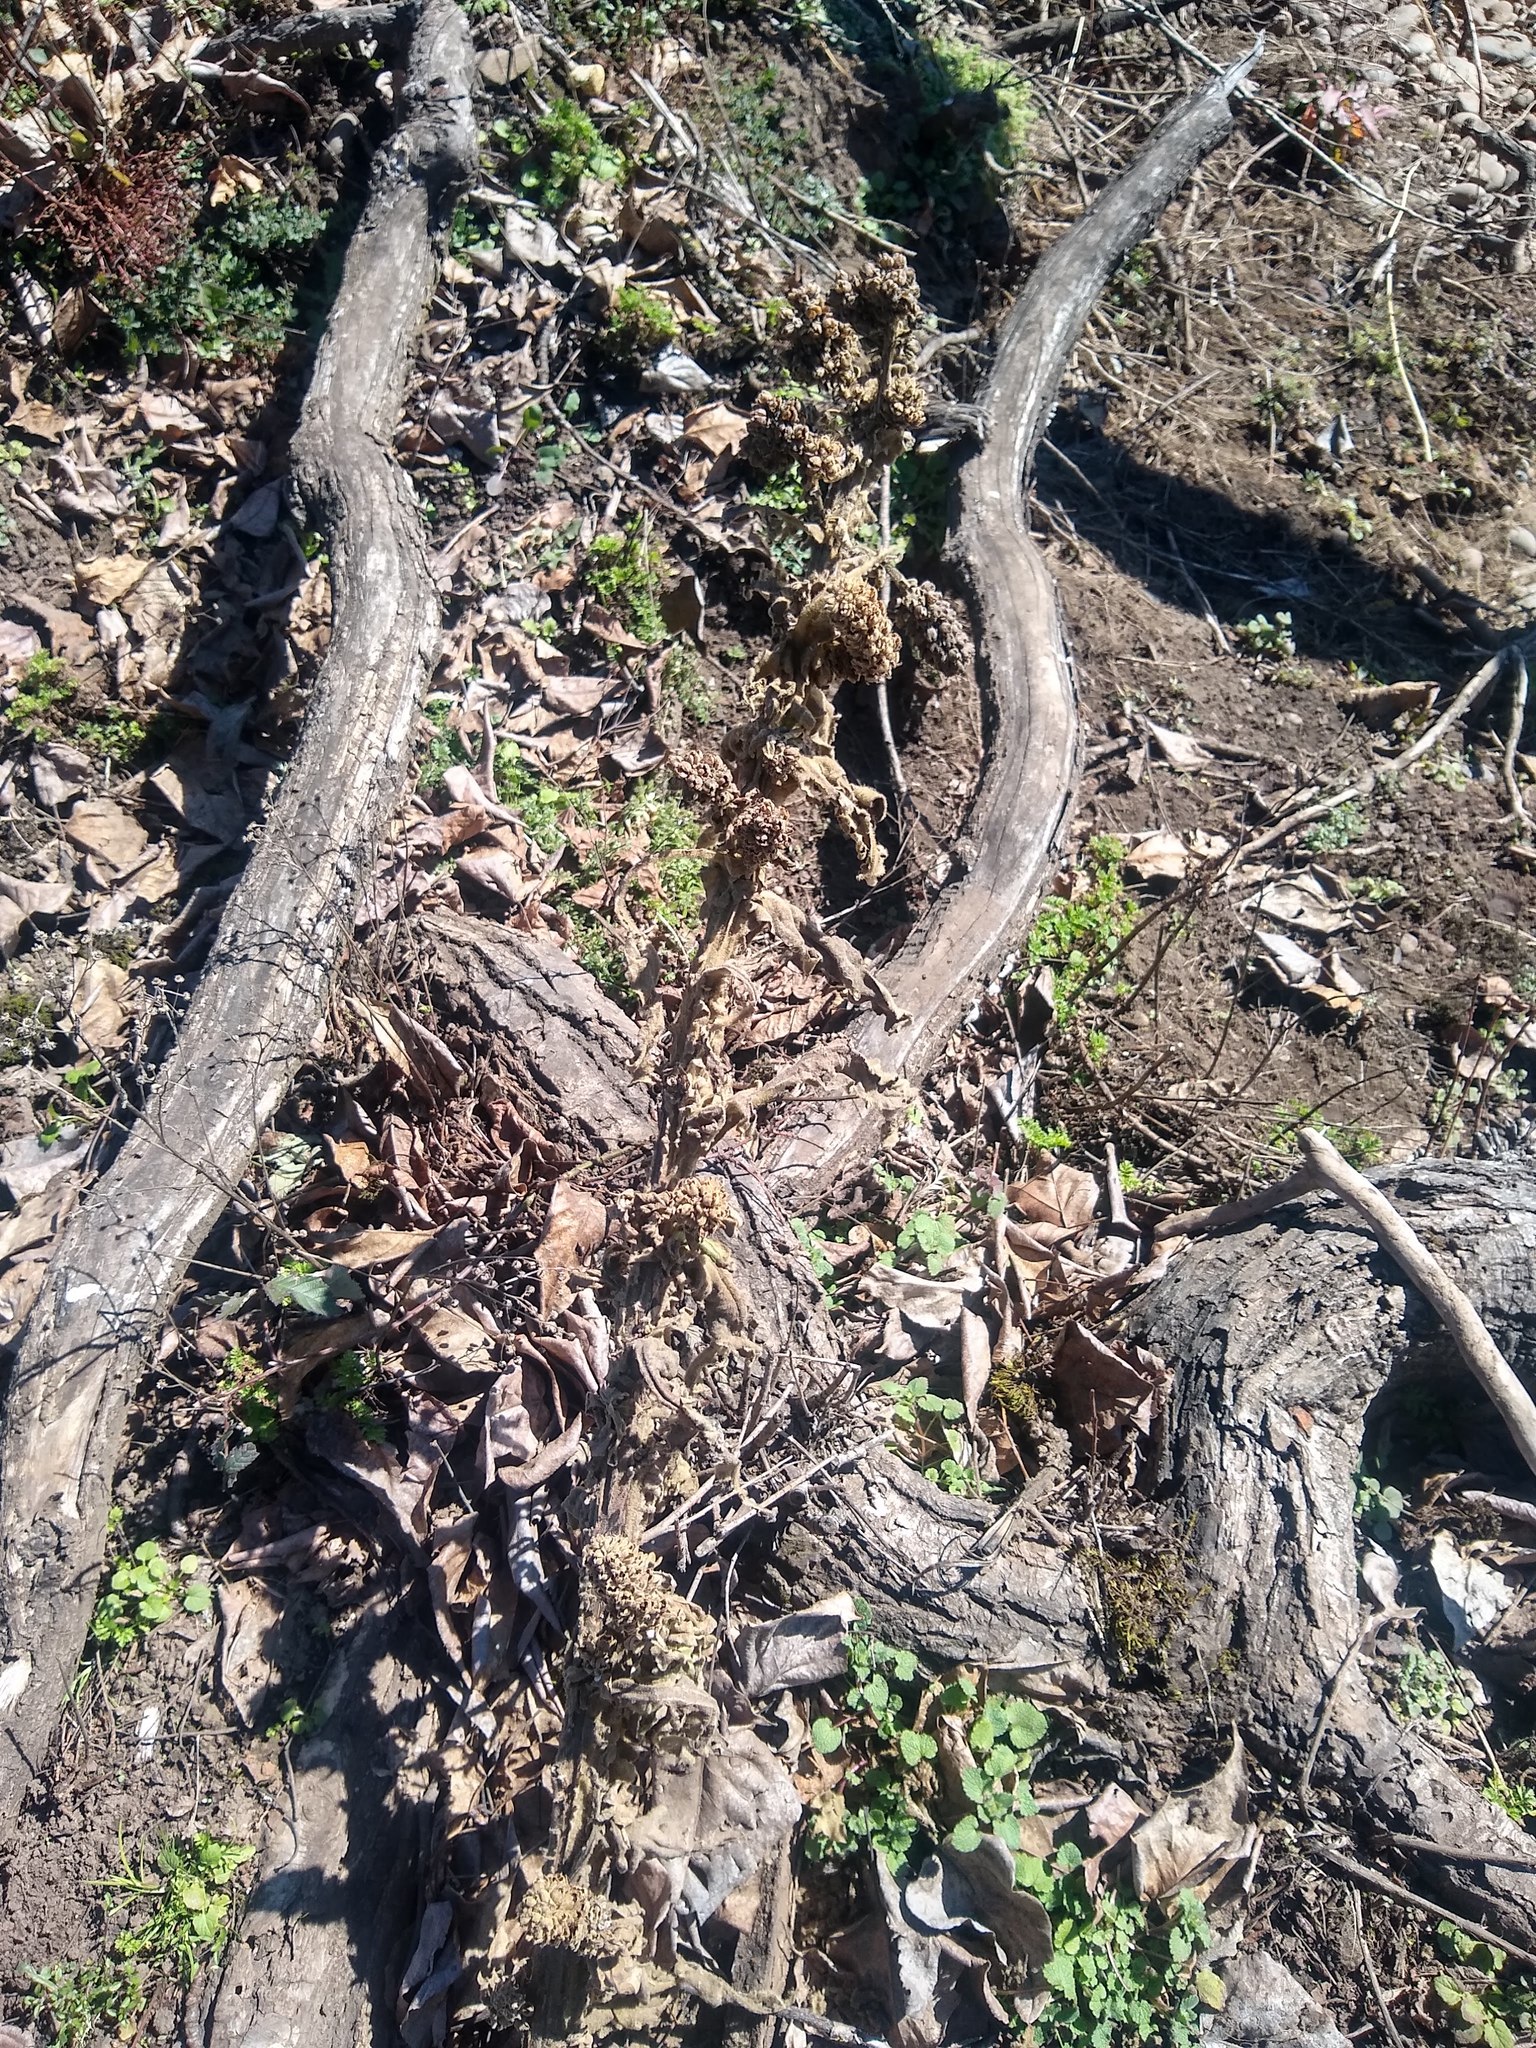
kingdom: Plantae
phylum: Tracheophyta
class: Magnoliopsida
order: Lamiales
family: Scrophulariaceae
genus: Verbascum
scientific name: Verbascum thapsus
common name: Common mullein
